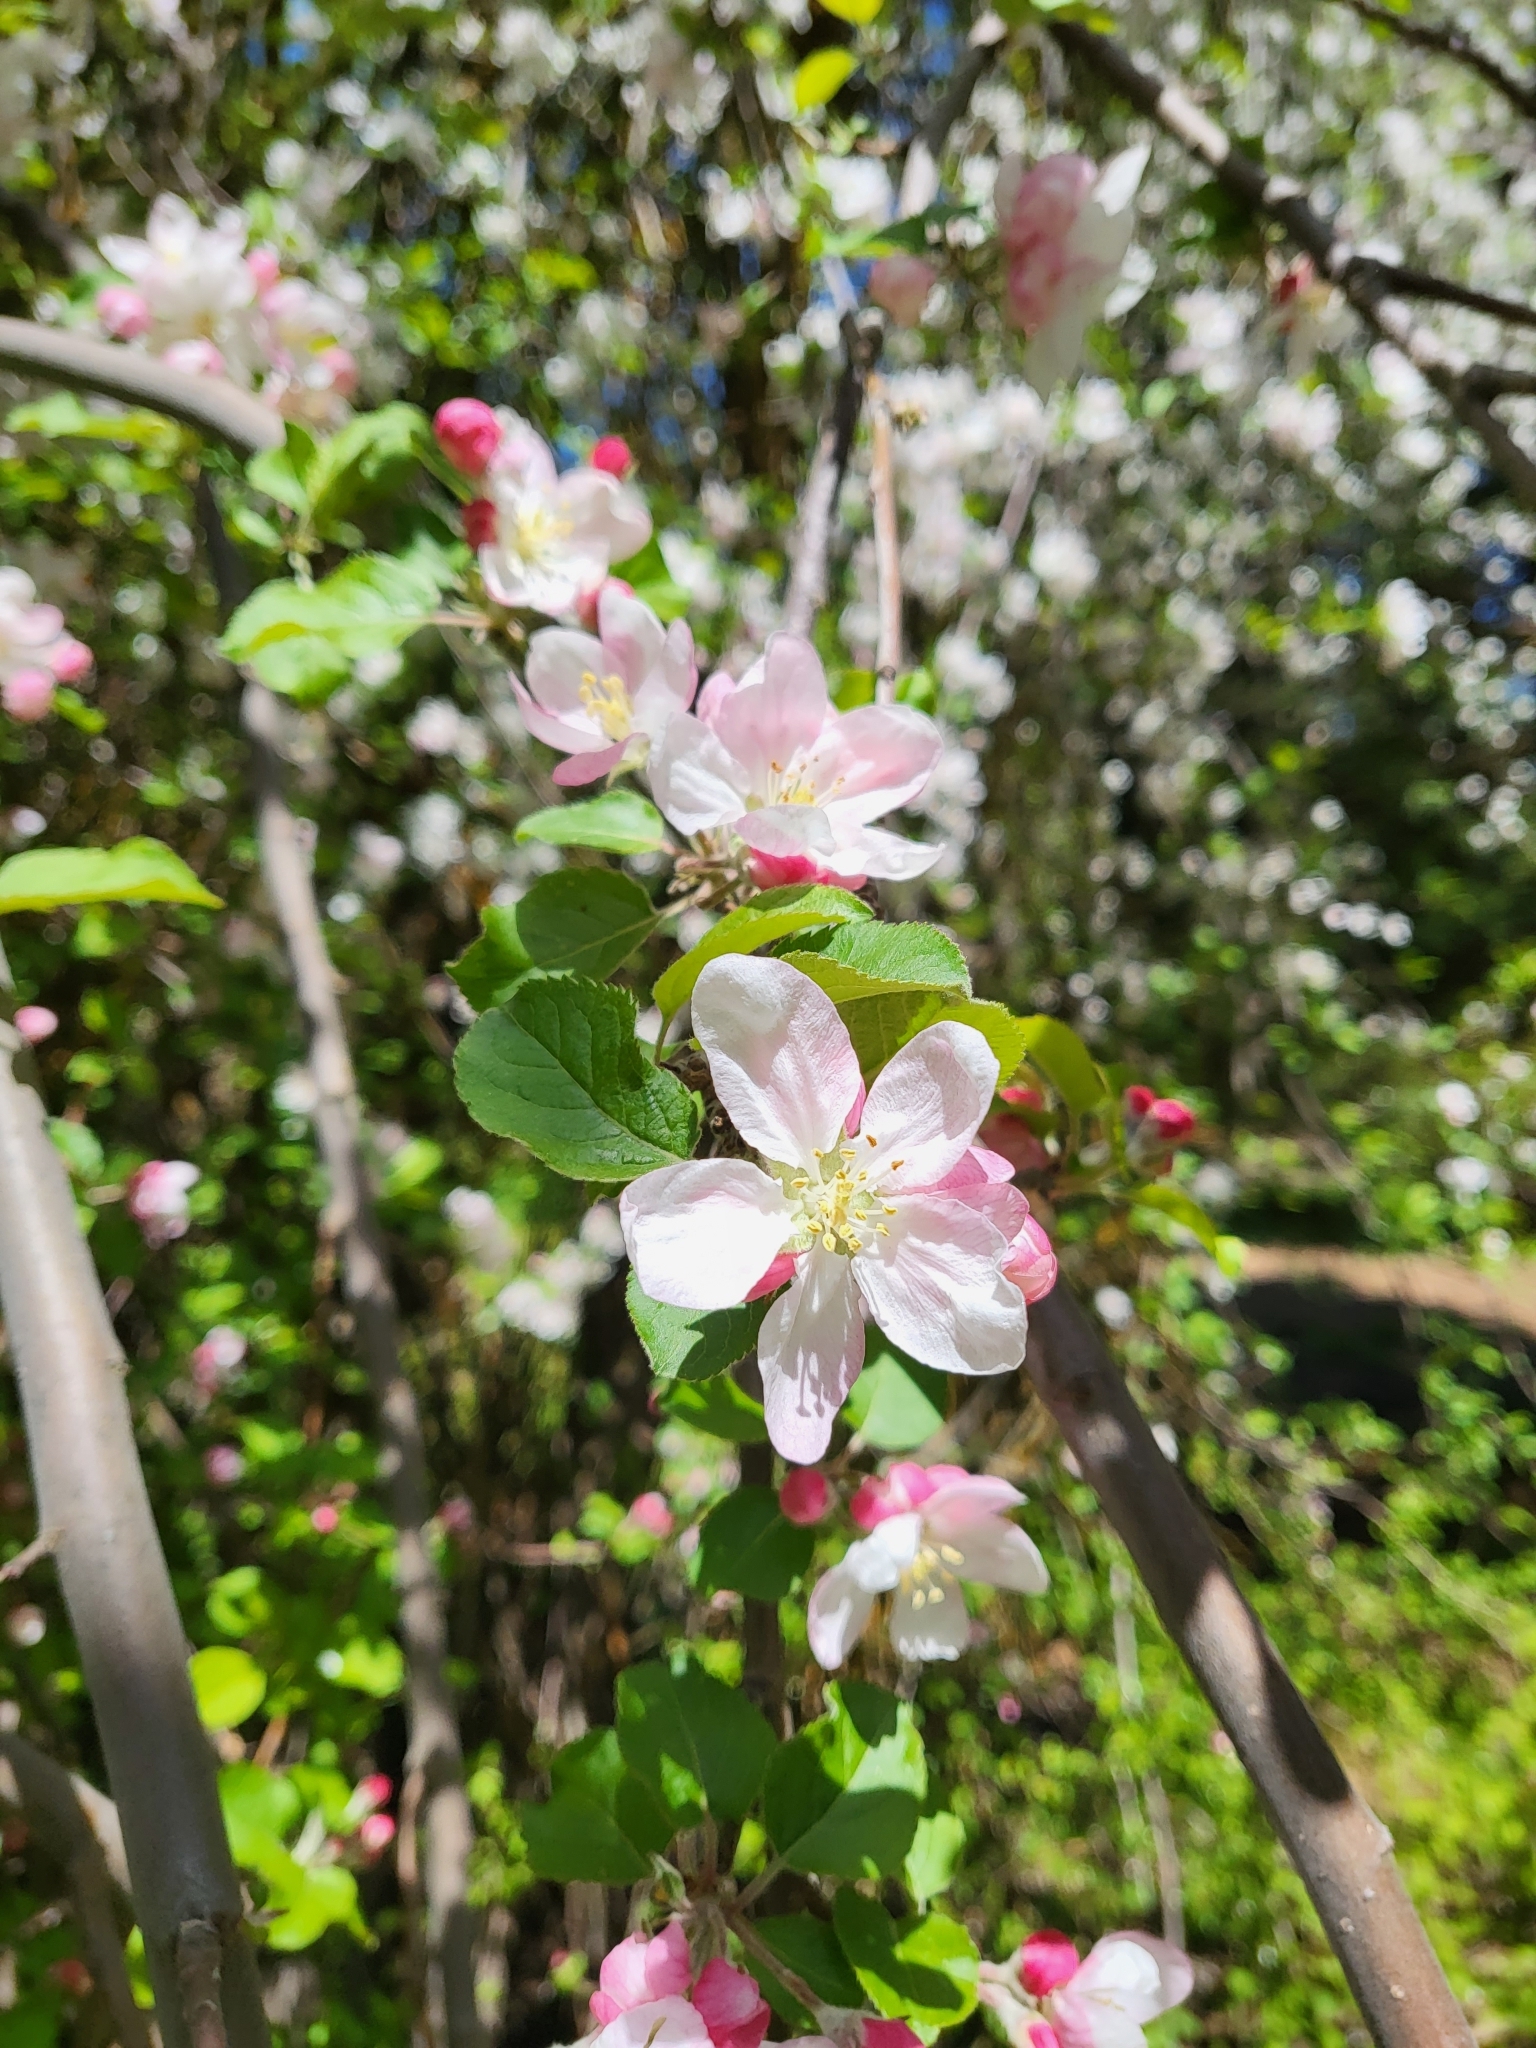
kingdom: Plantae
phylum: Tracheophyta
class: Magnoliopsida
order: Rosales
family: Rosaceae
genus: Malus
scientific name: Malus domestica
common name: Apple
